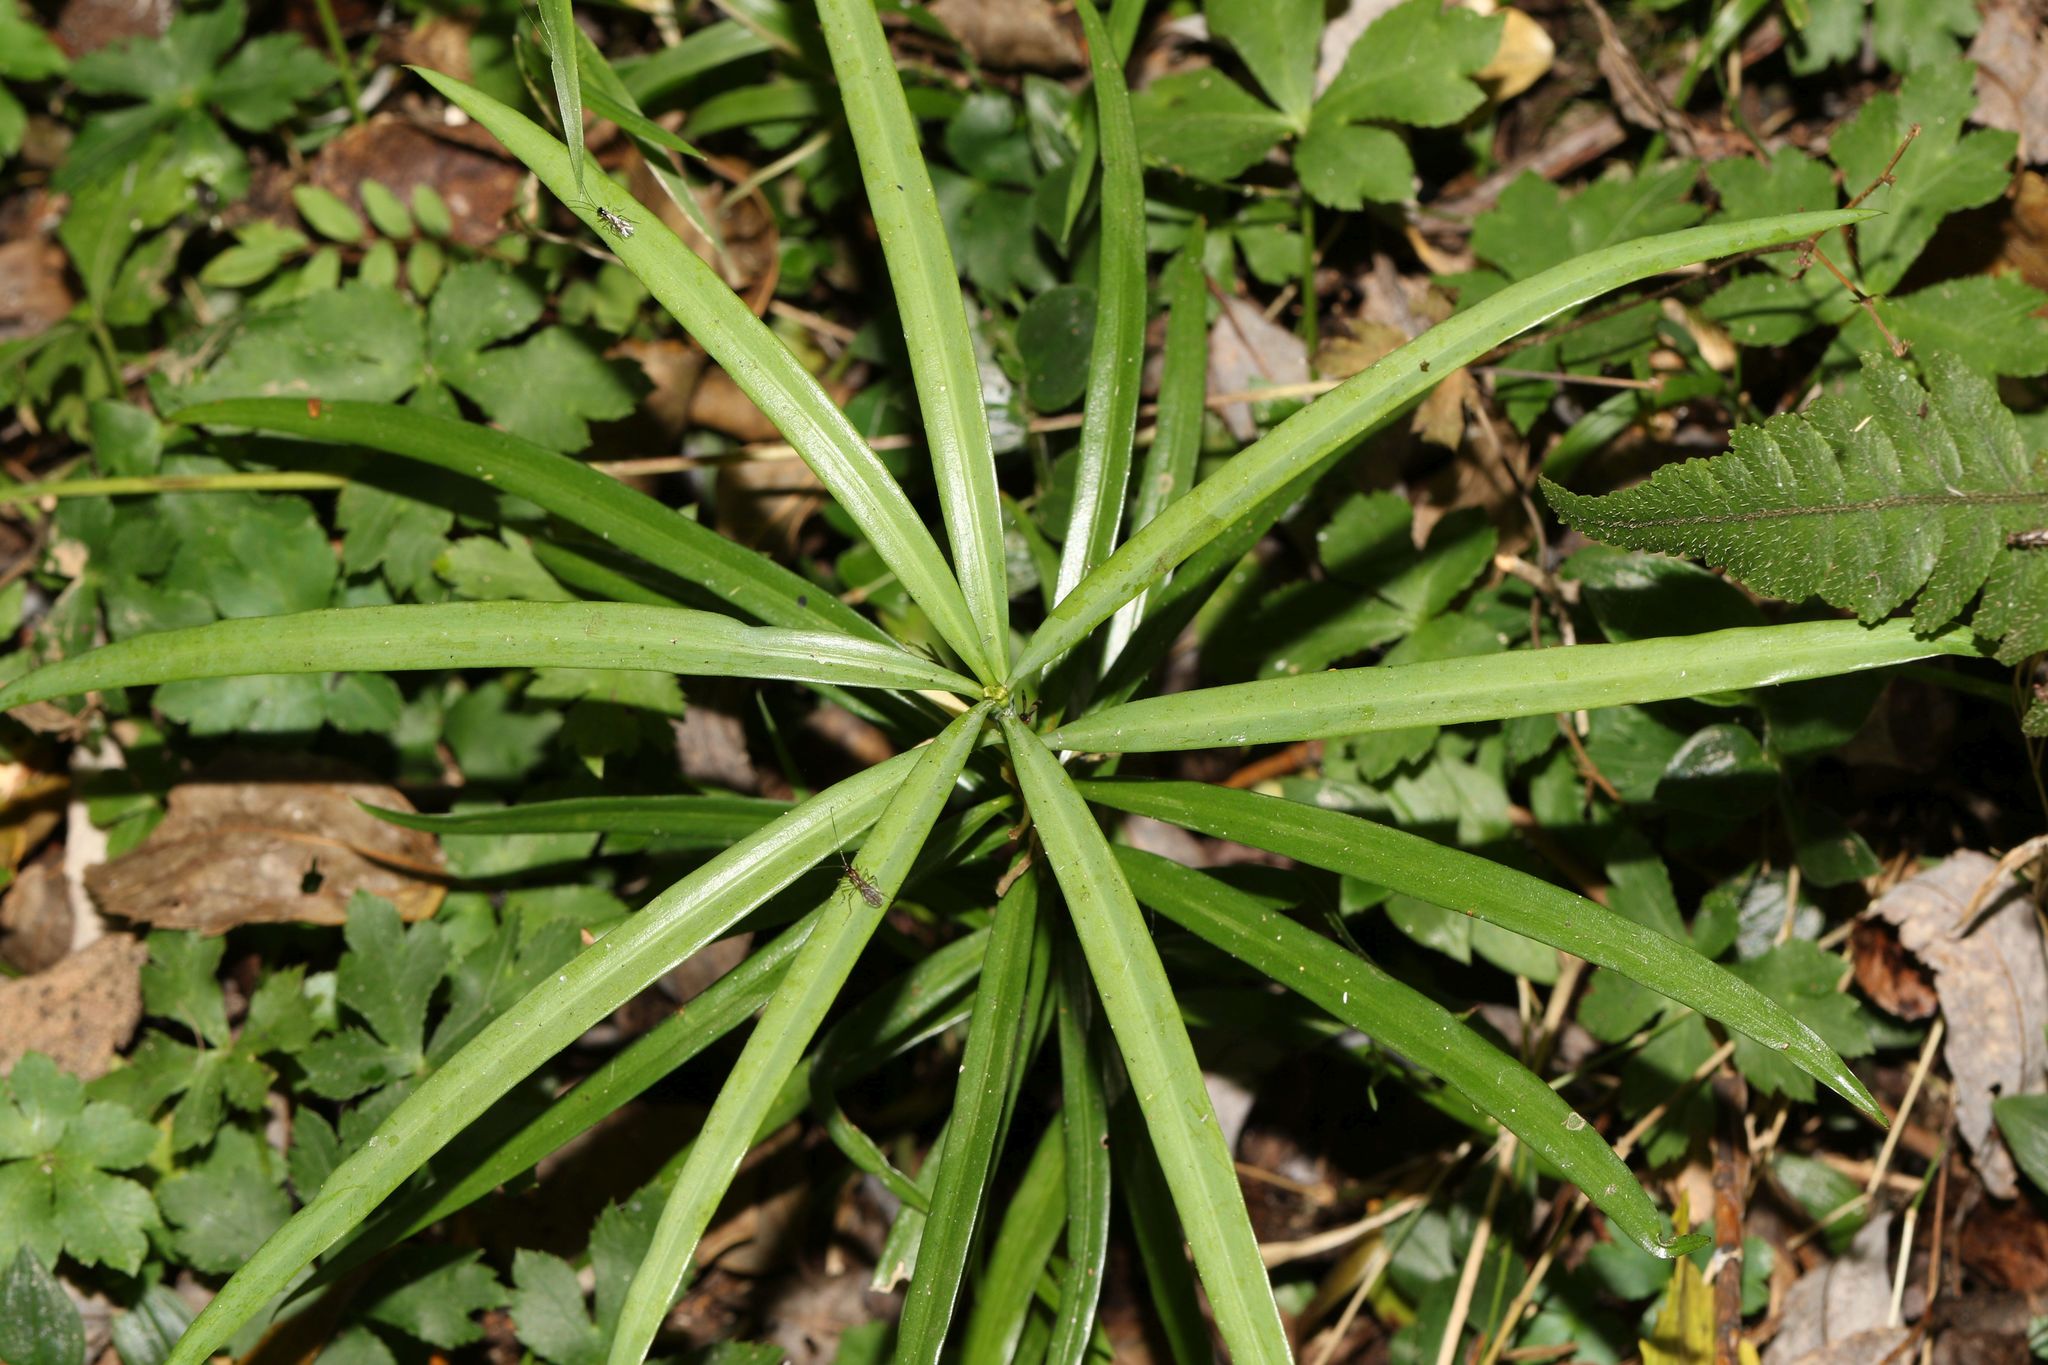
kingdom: Plantae
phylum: Tracheophyta
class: Pinopsida
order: Pinales
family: Podocarpaceae
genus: Podocarpus
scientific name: Podocarpus henkelii
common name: Henkel's yellowwood
